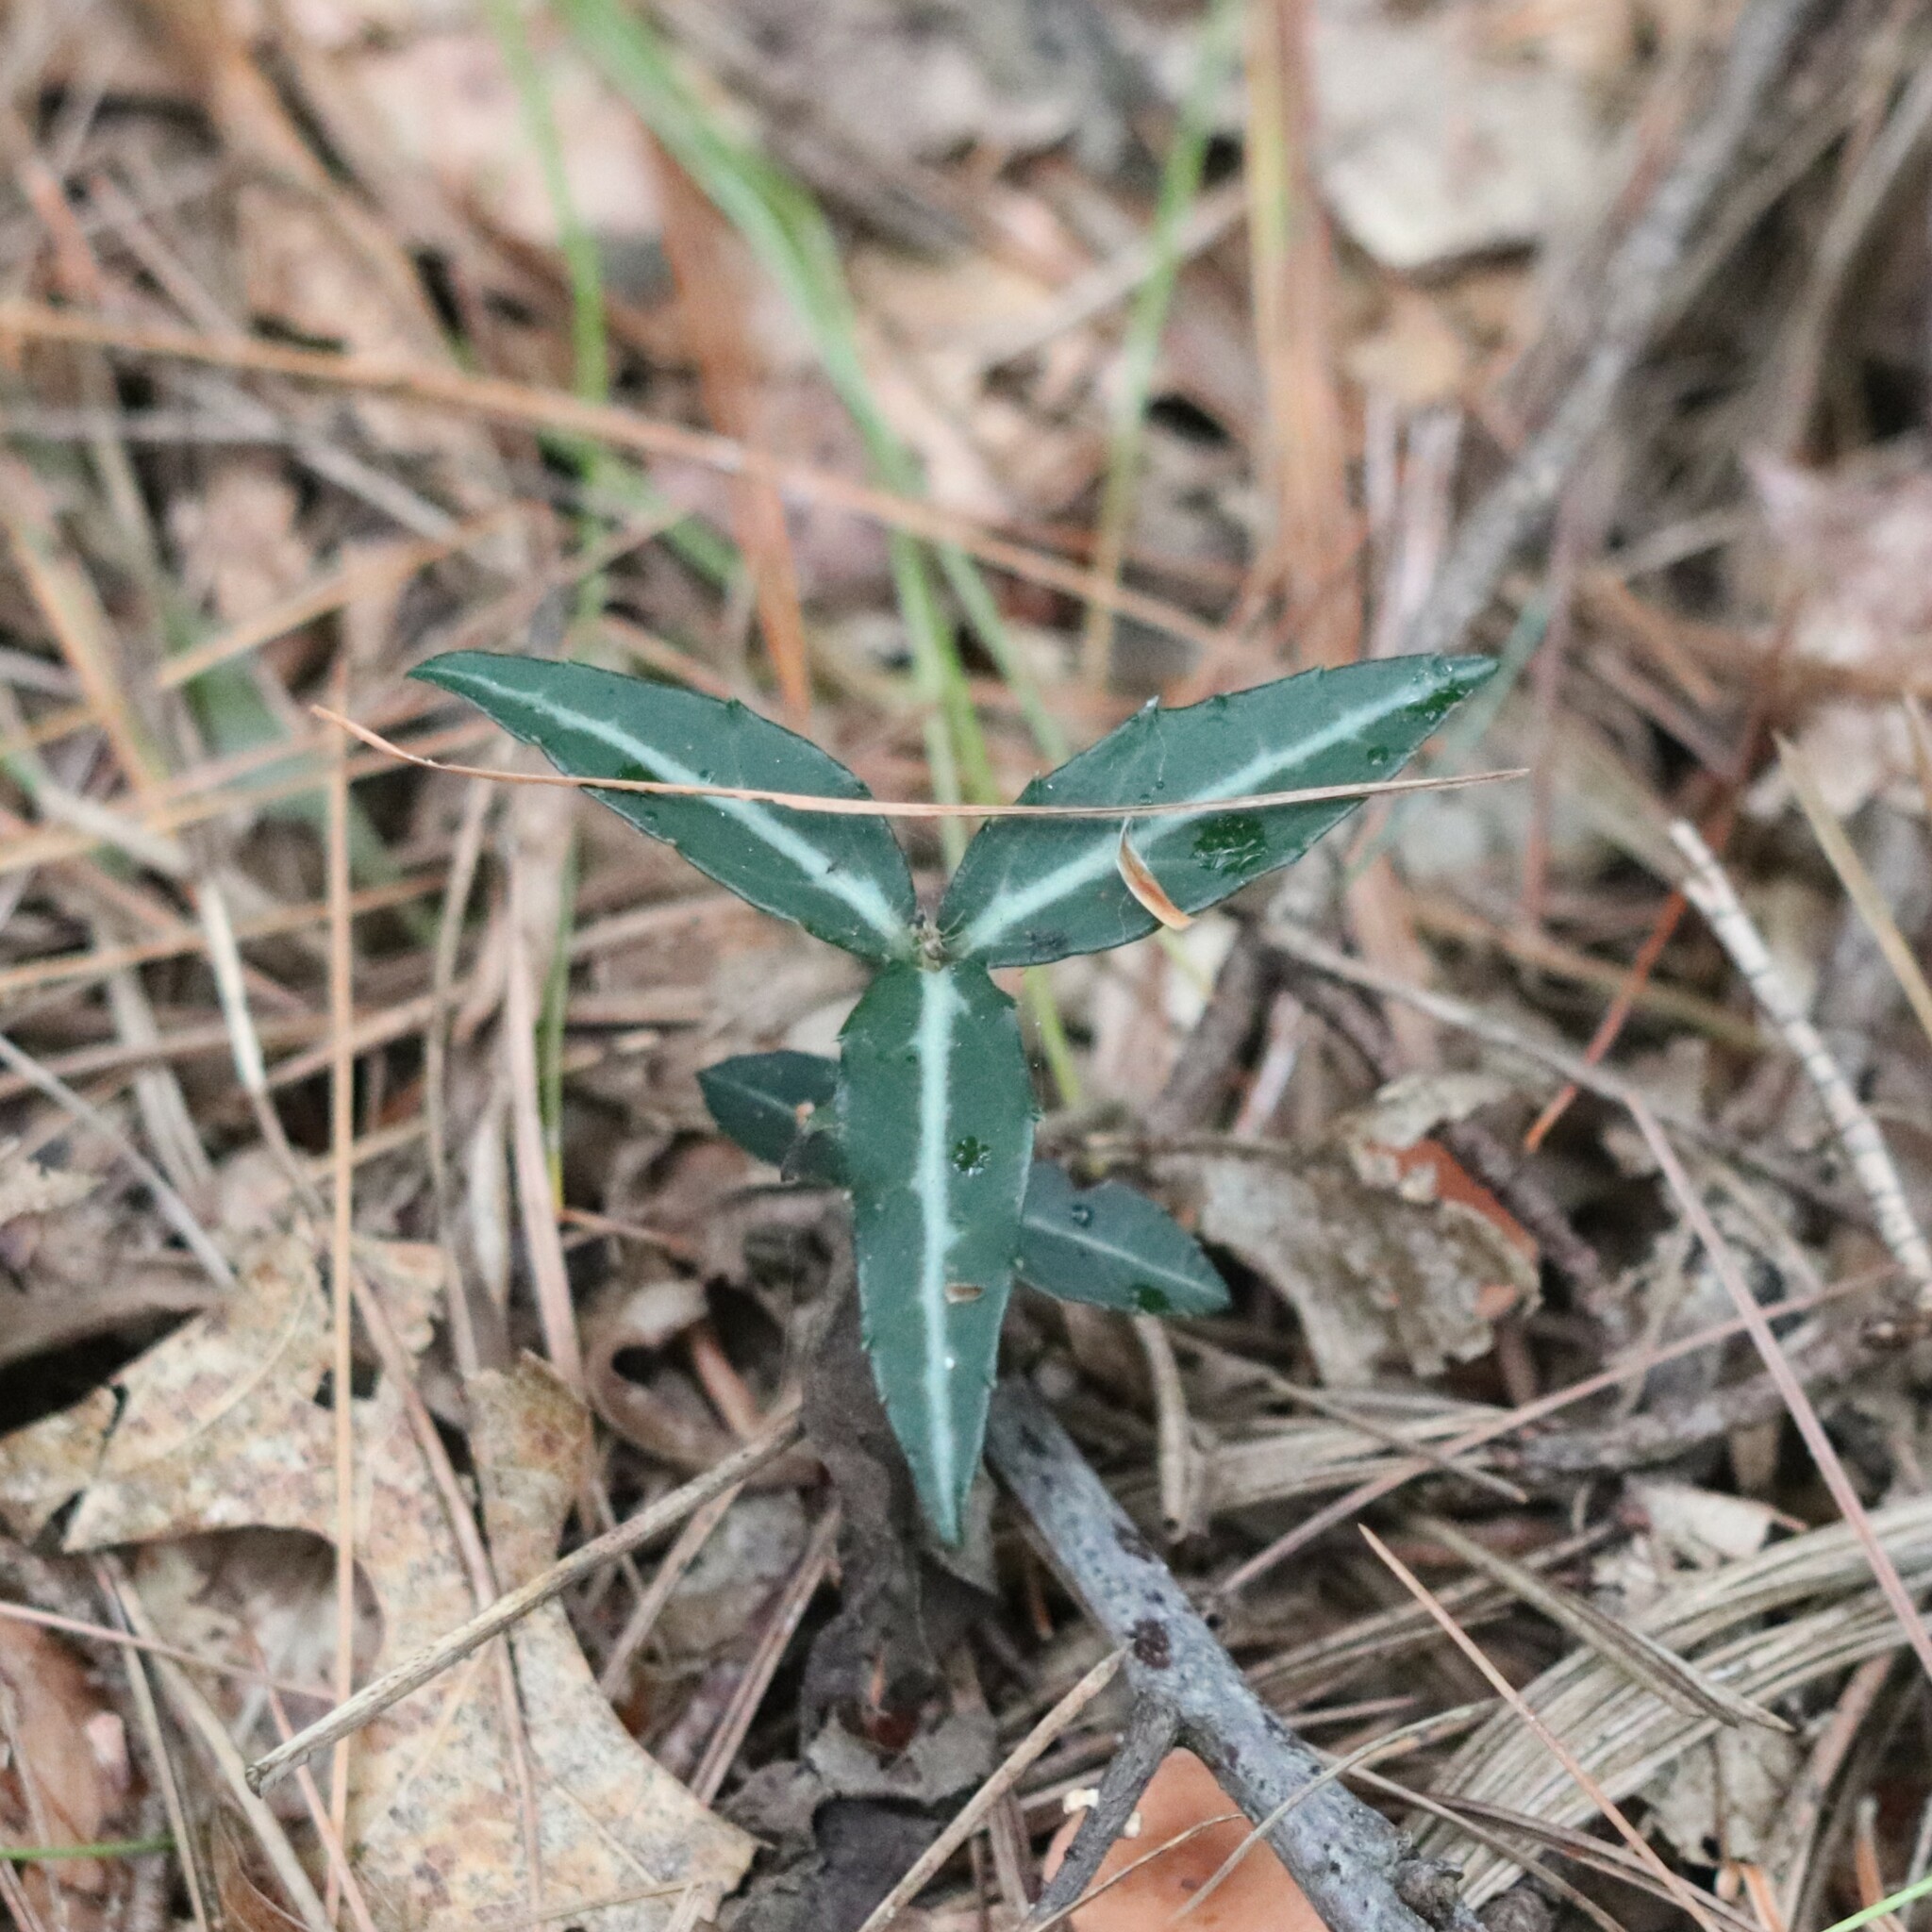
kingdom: Plantae
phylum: Tracheophyta
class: Magnoliopsida
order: Ericales
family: Ericaceae
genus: Chimaphila
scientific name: Chimaphila maculata
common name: Spotted pipsissewa
